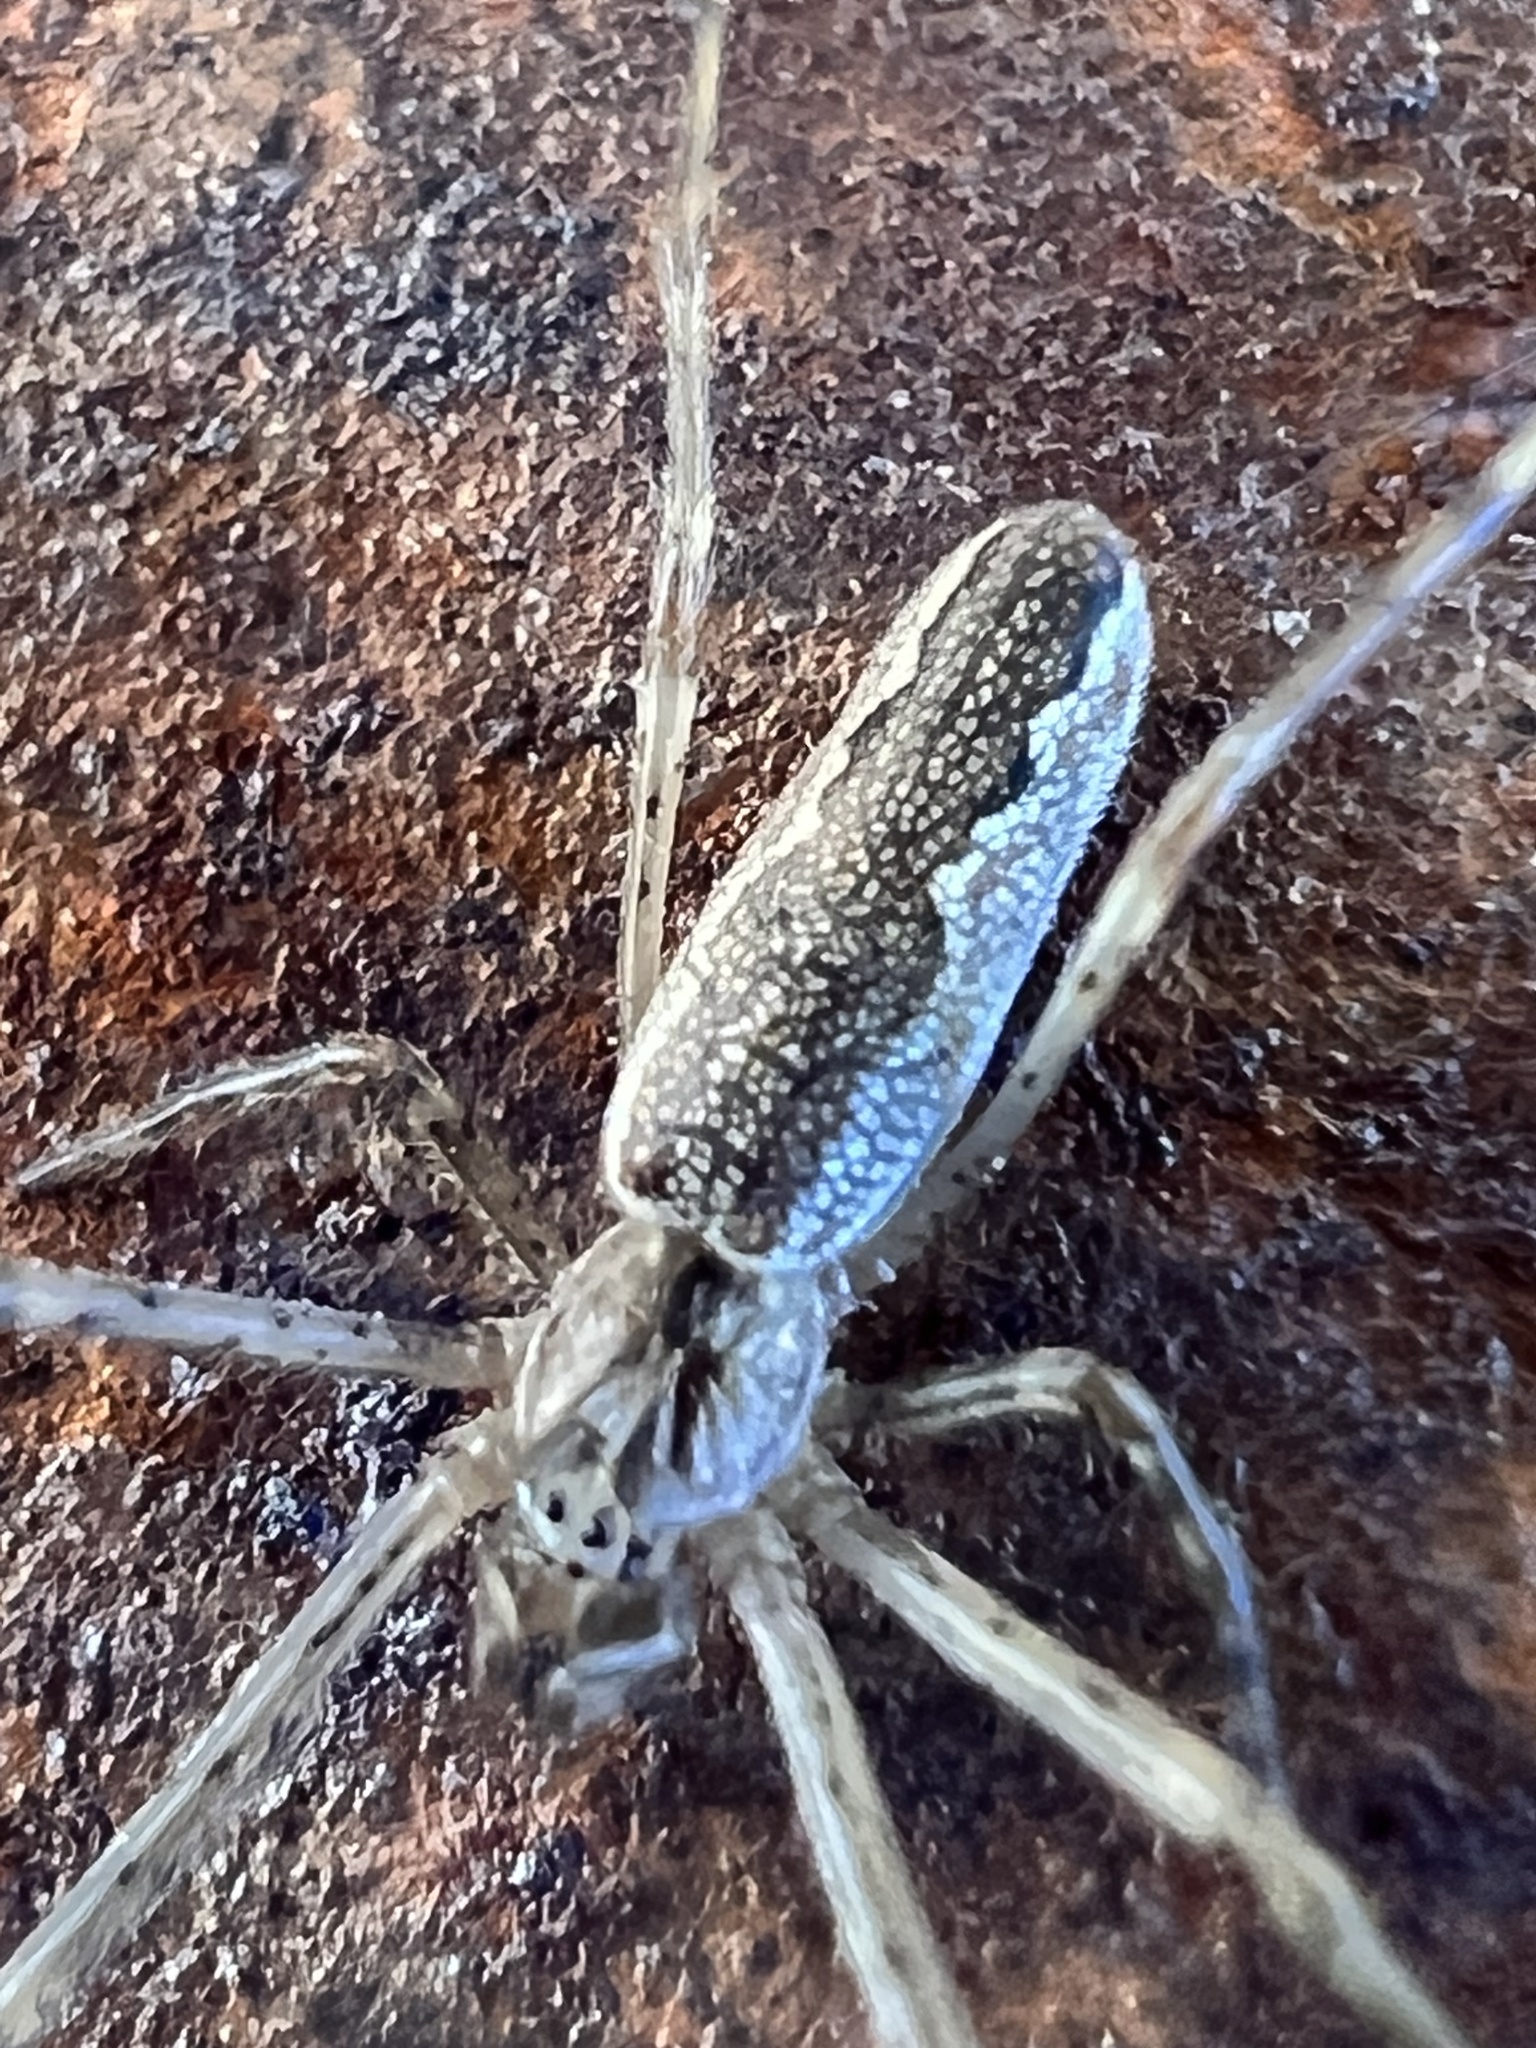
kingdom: Animalia
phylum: Arthropoda
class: Arachnida
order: Araneae
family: Tetragnathidae
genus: Tetragnatha
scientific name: Tetragnatha versicolor
